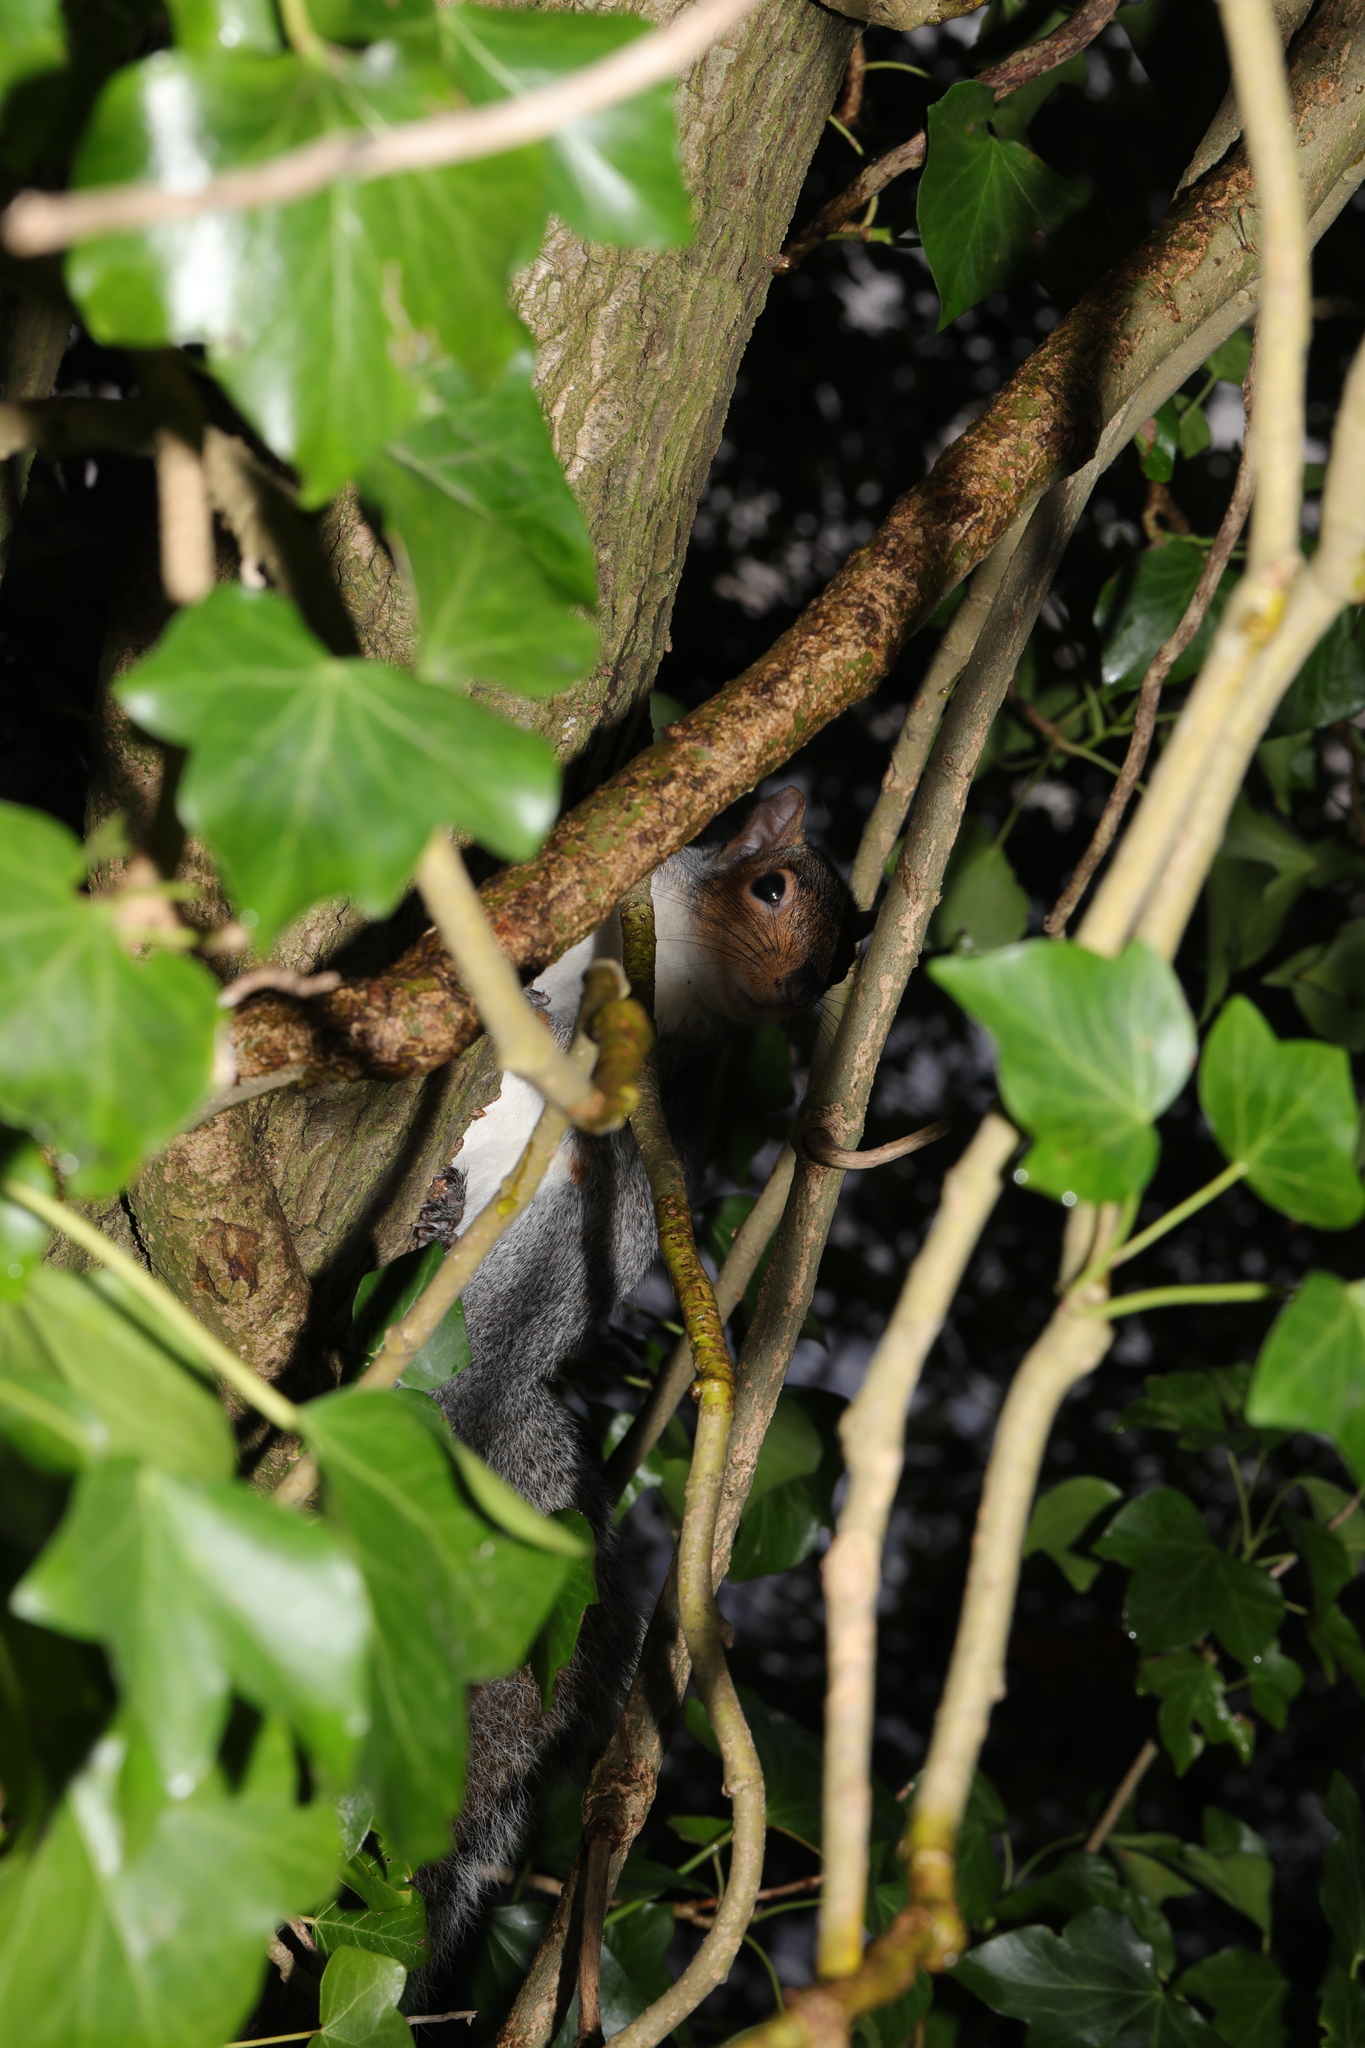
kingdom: Animalia
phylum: Chordata
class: Mammalia
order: Rodentia
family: Sciuridae
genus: Sciurus
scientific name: Sciurus carolinensis
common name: Eastern gray squirrel
